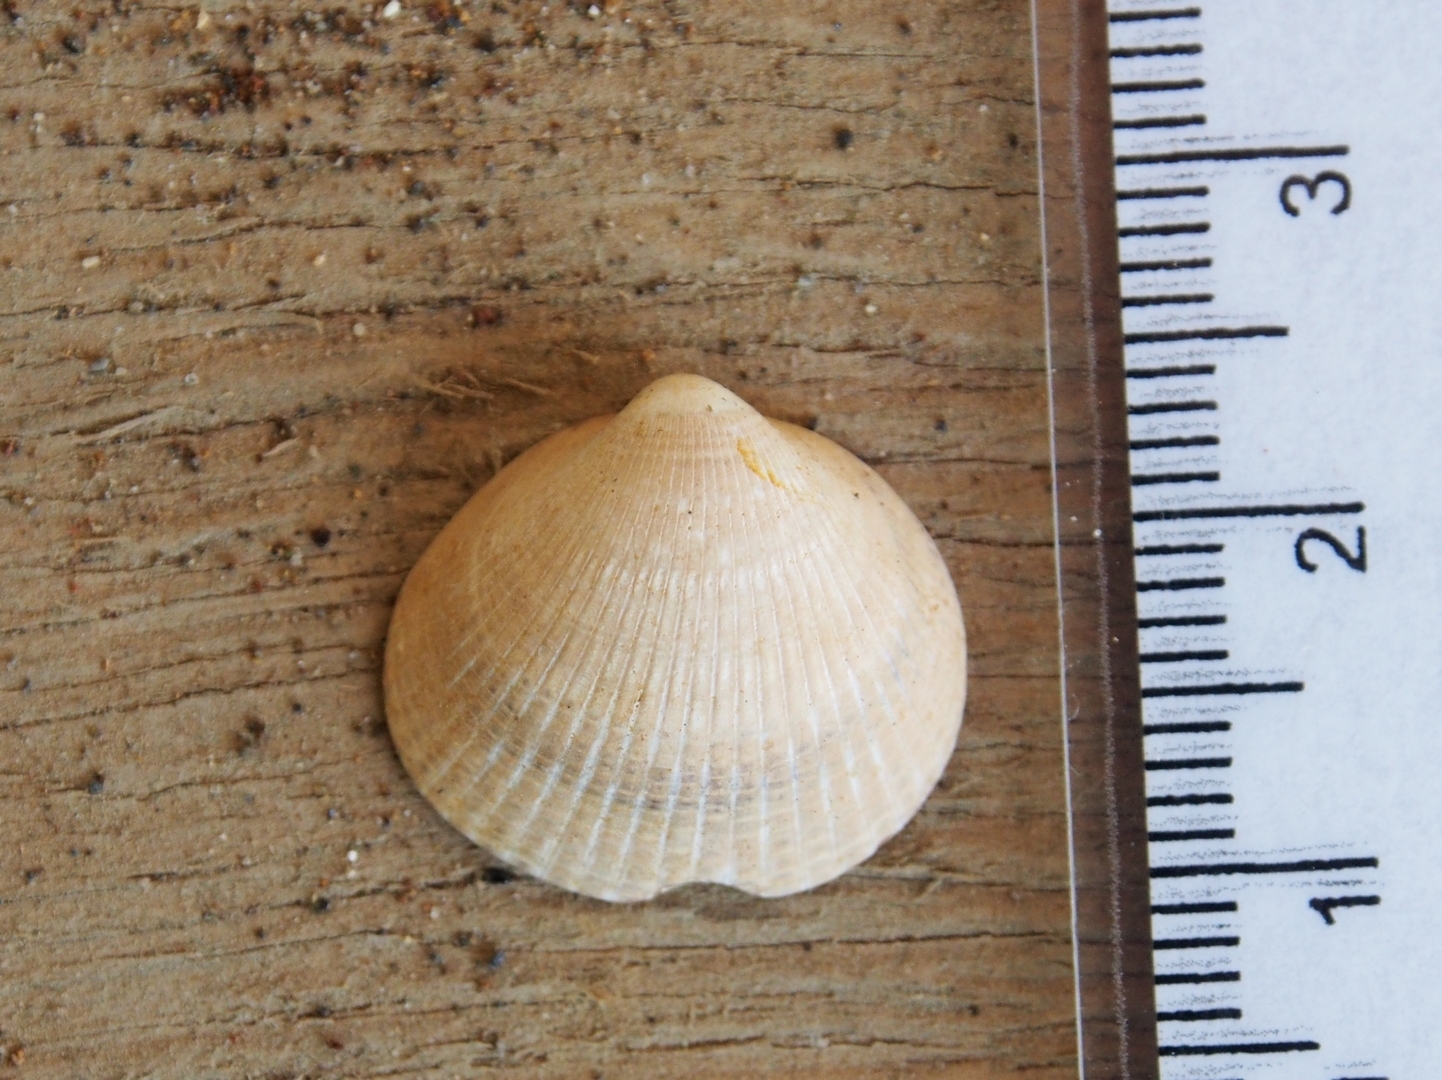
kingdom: Animalia
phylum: Mollusca
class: Bivalvia
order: Arcida
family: Glycymerididae
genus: Glycymeris
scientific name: Glycymeris spectralis
